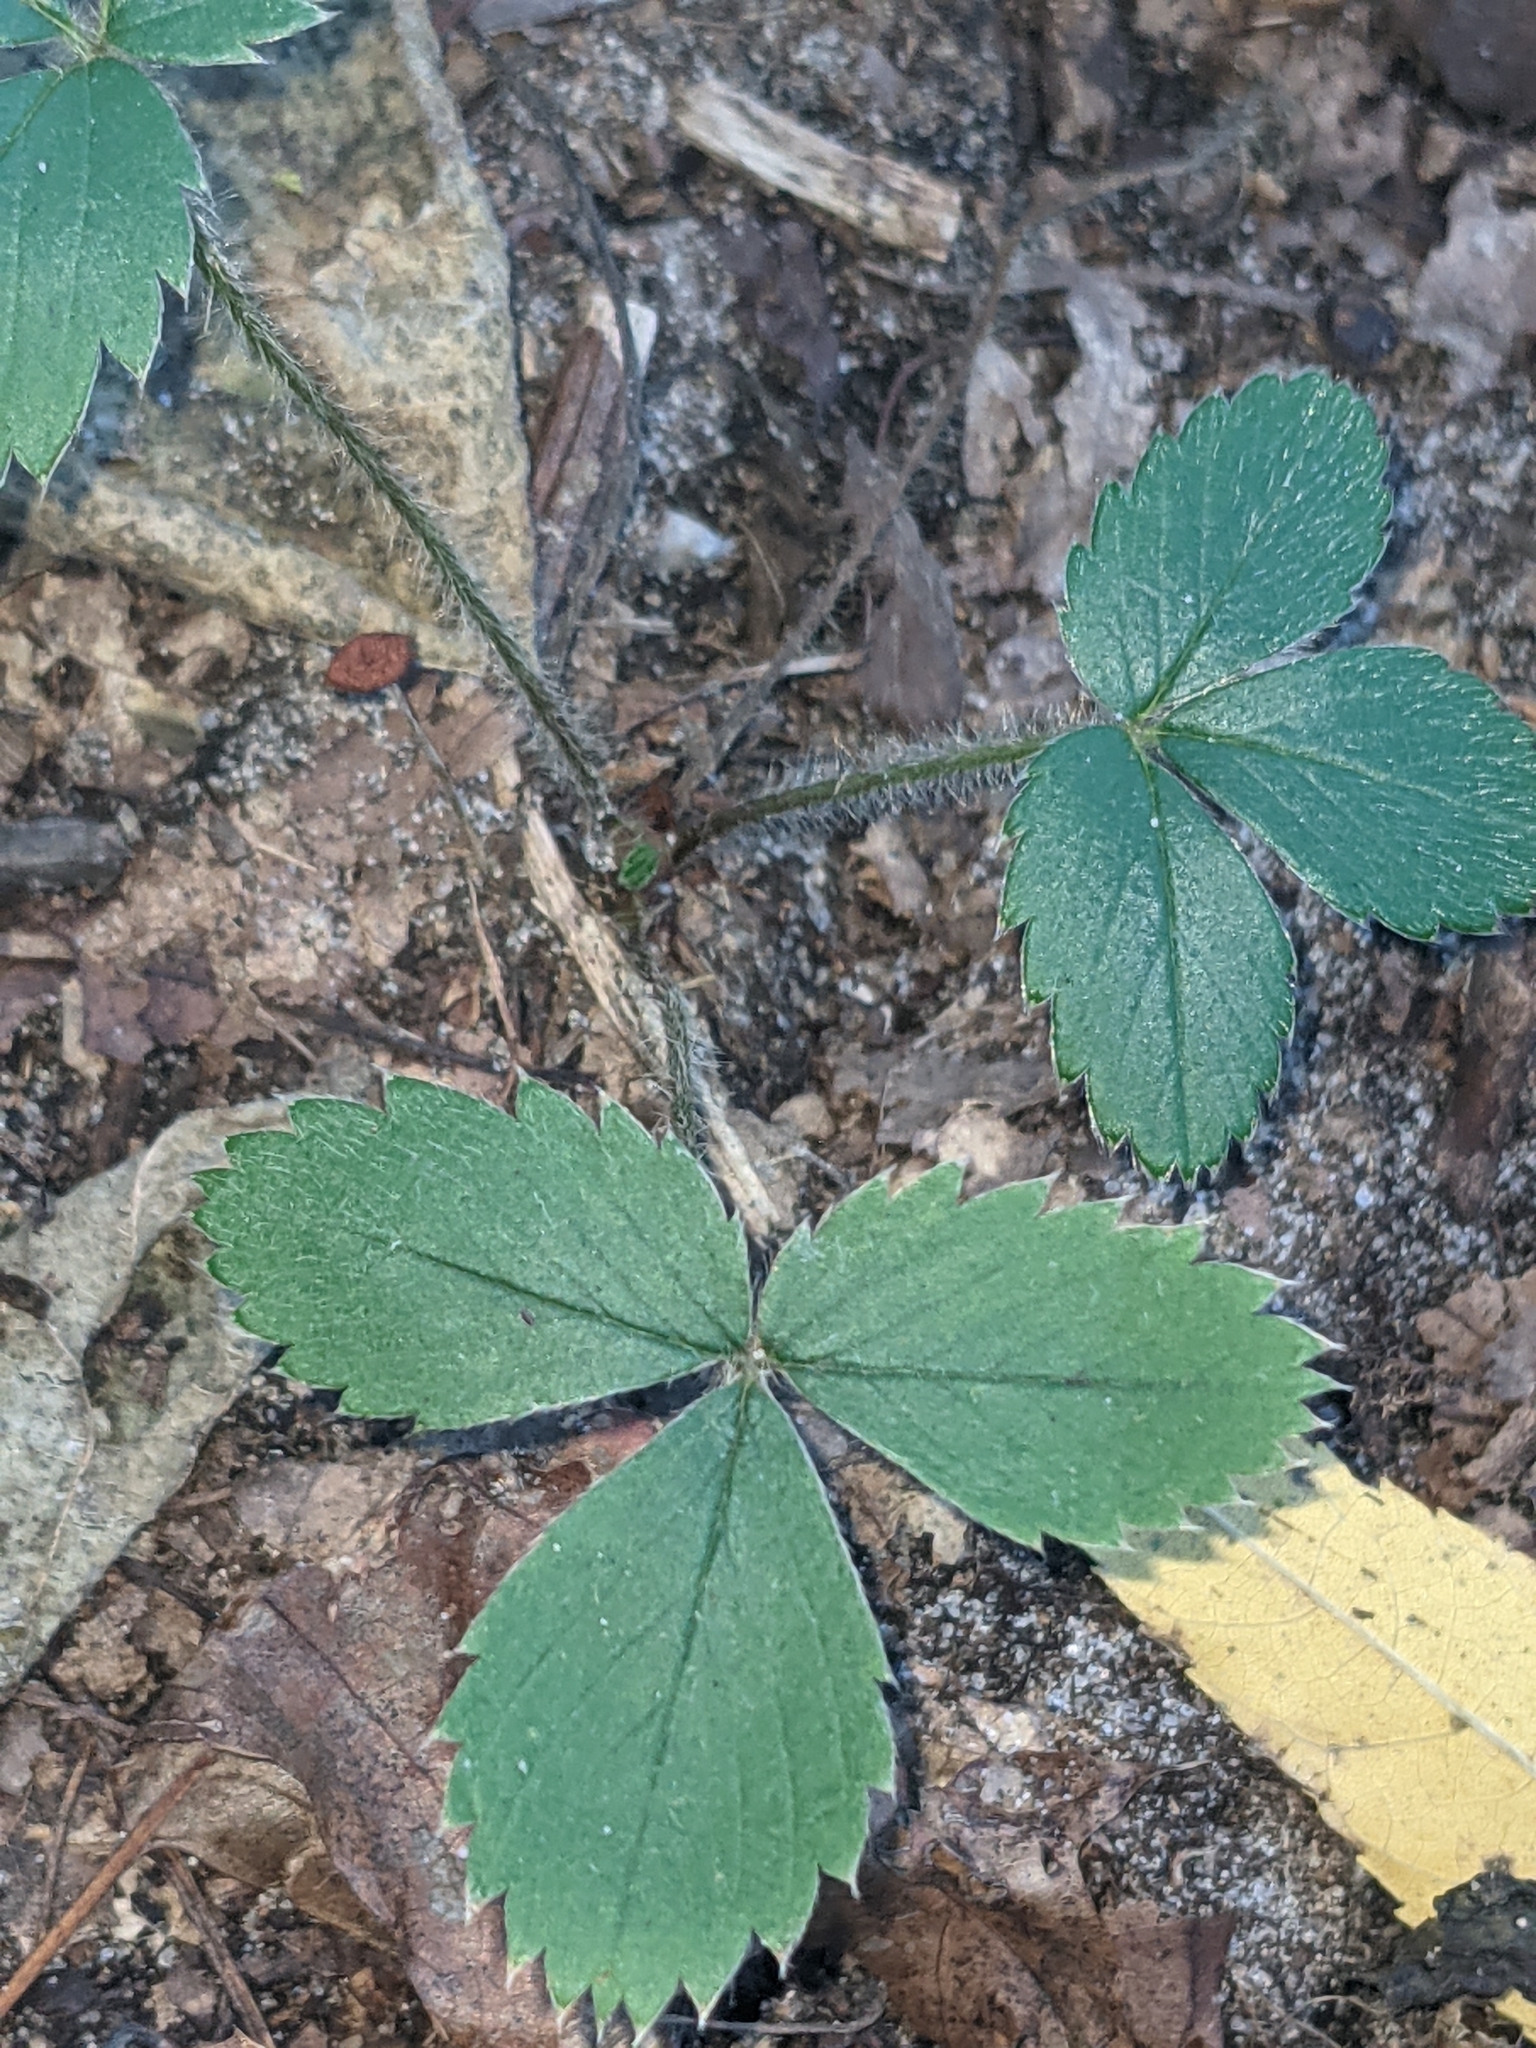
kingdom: Plantae
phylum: Tracheophyta
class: Magnoliopsida
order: Rosales
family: Rosaceae
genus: Fragaria
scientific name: Fragaria vesca
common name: Wild strawberry
